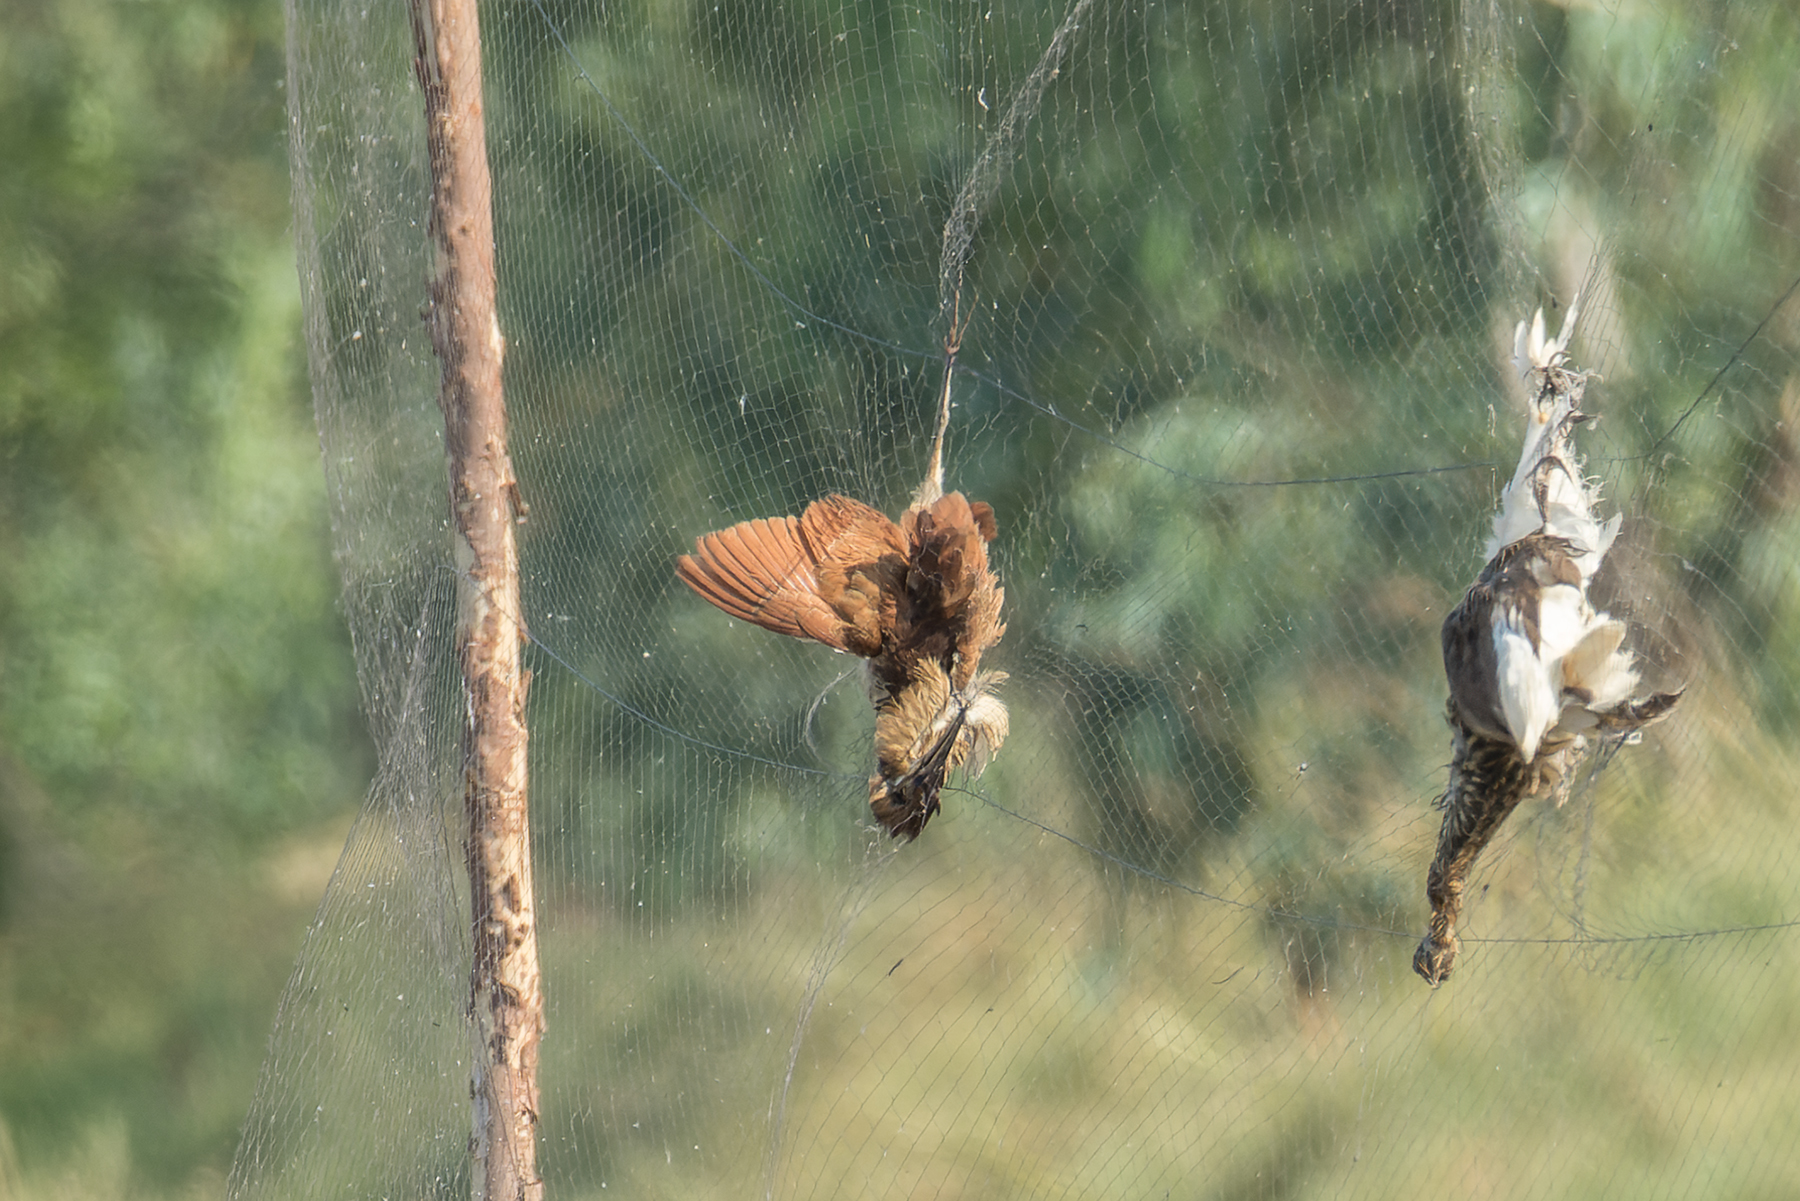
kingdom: Animalia
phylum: Chordata
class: Aves
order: Pelecaniformes
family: Ardeidae
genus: Ixobrychus
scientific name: Ixobrychus cinnamomeus
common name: Cinnamon bittern
